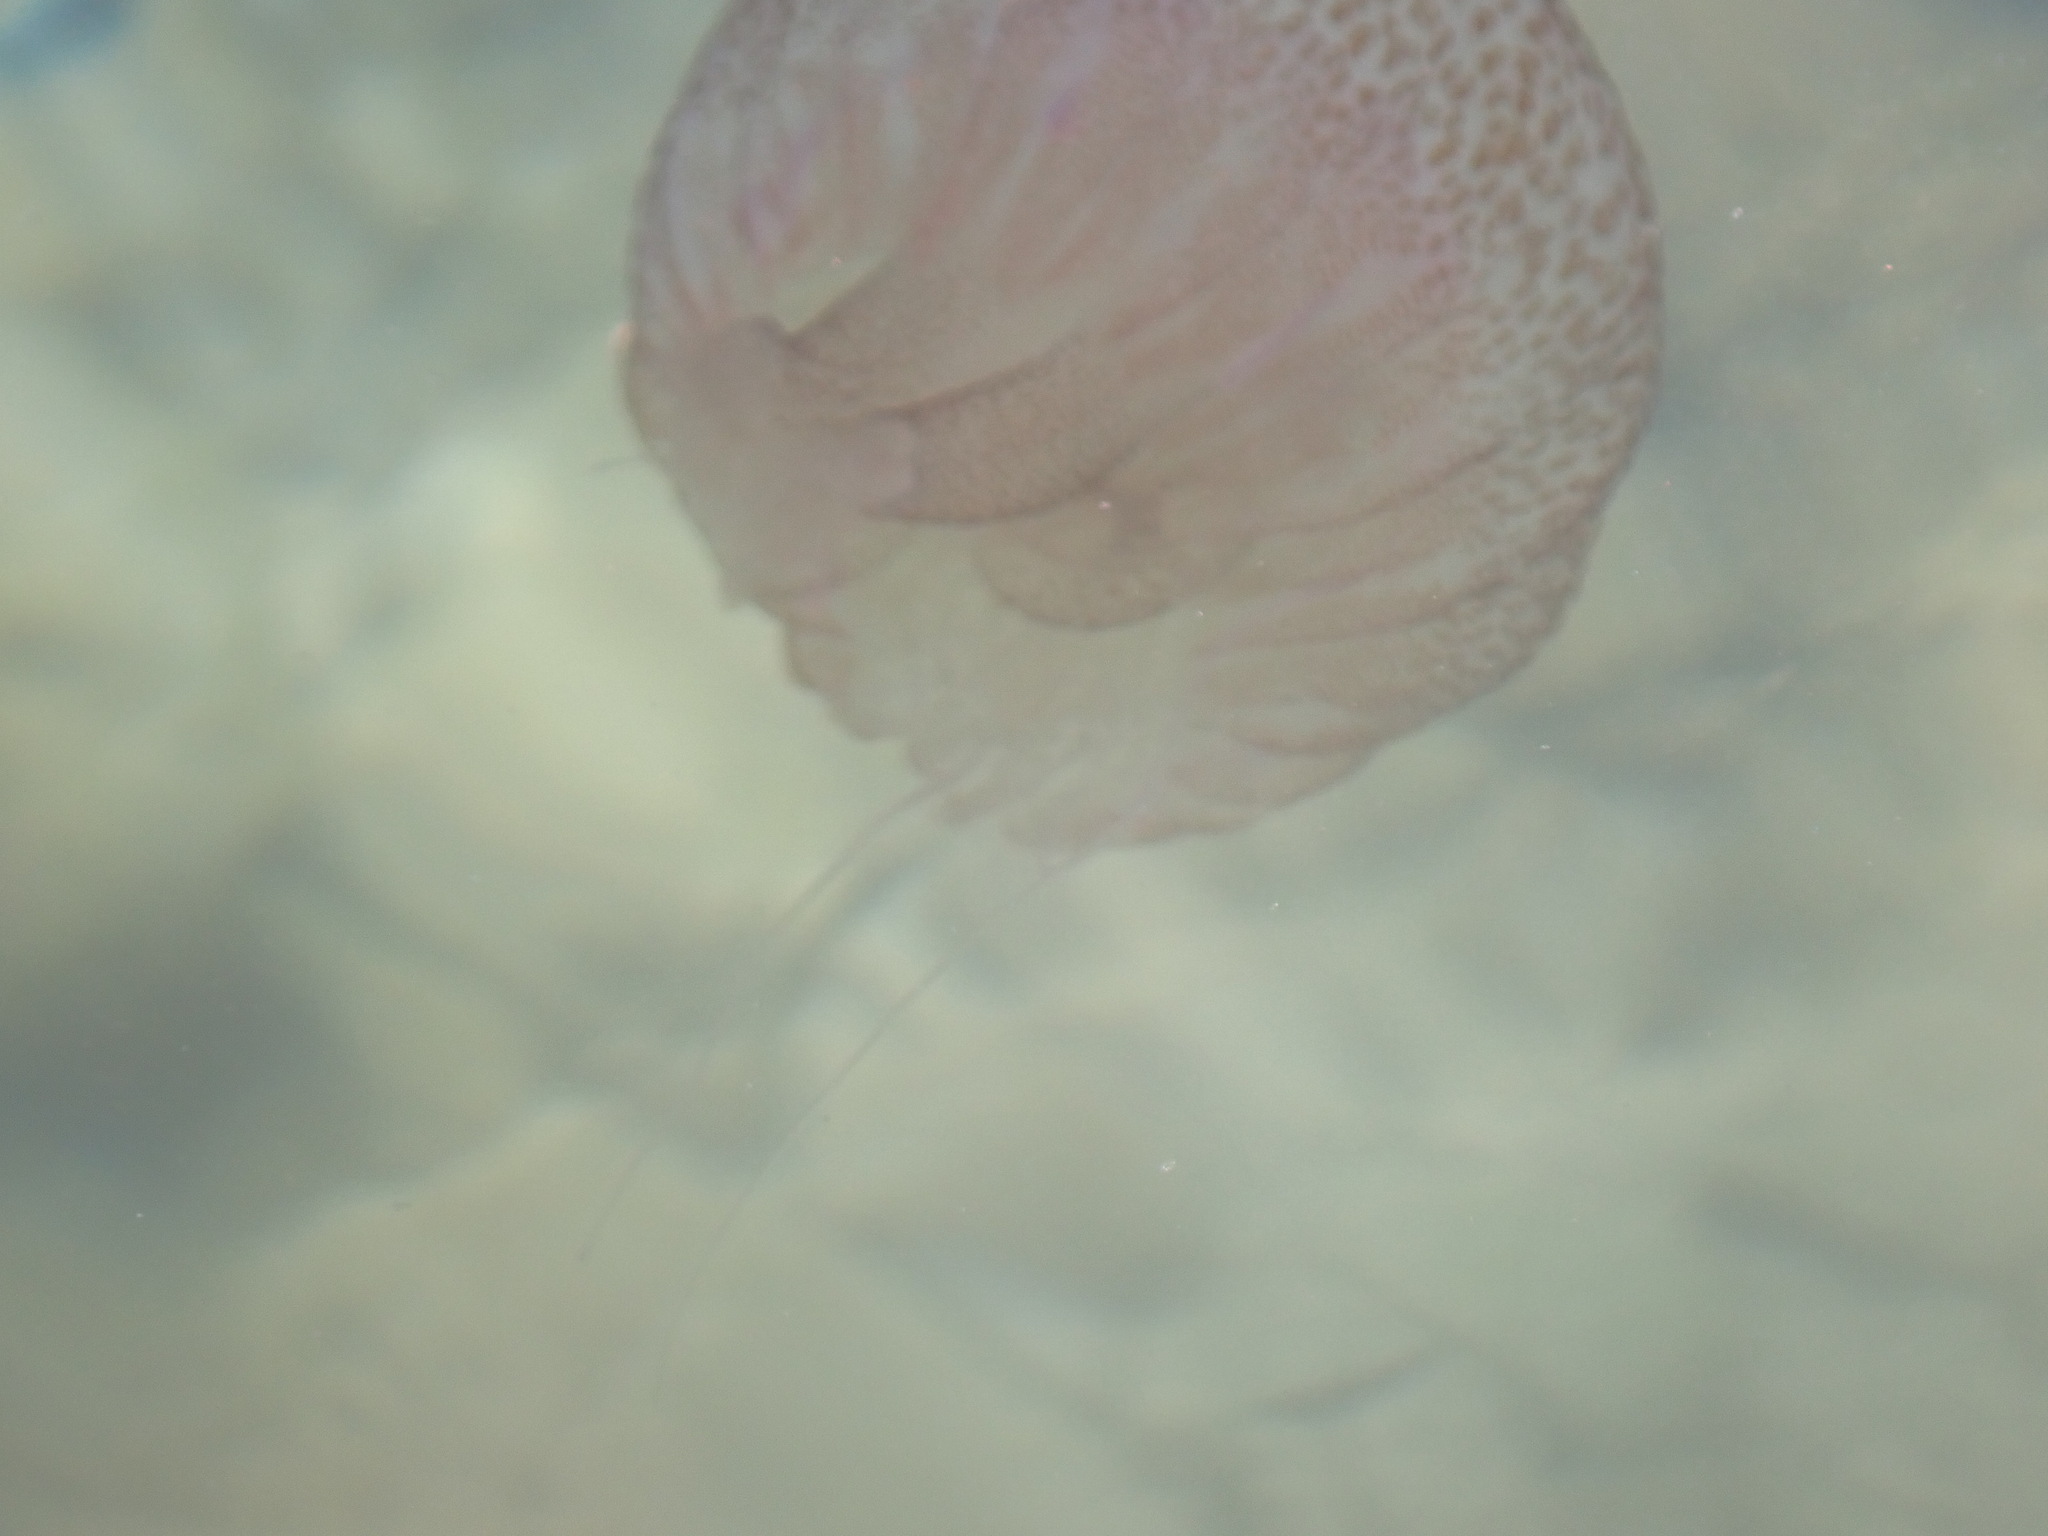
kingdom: Animalia
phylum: Cnidaria
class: Scyphozoa
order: Semaeostomeae
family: Pelagiidae
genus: Pelagia
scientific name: Pelagia noctiluca
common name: Mauve stinger
